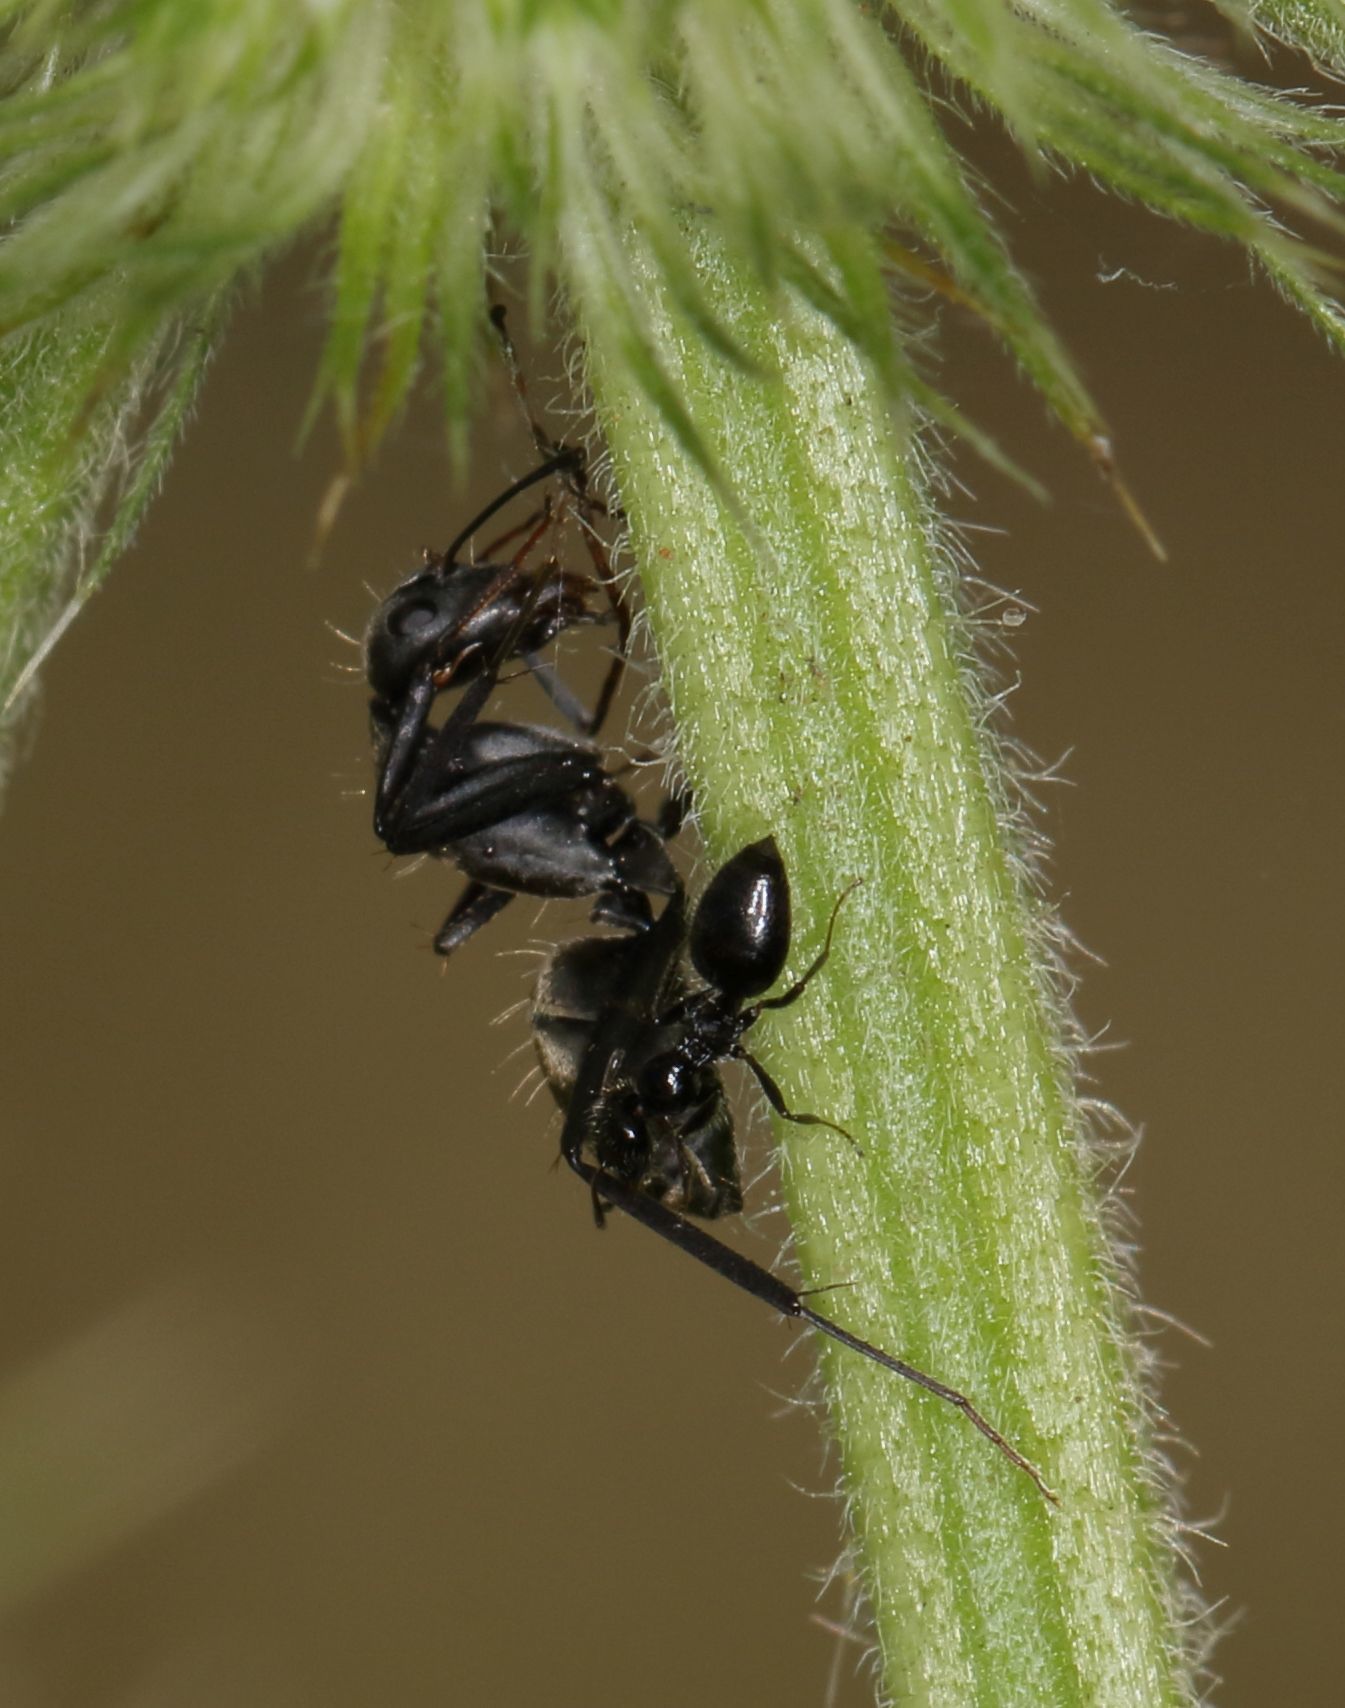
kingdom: Animalia
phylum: Arthropoda
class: Insecta
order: Hymenoptera
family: Formicidae
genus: Lepisiota
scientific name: Lepisiota crinita
